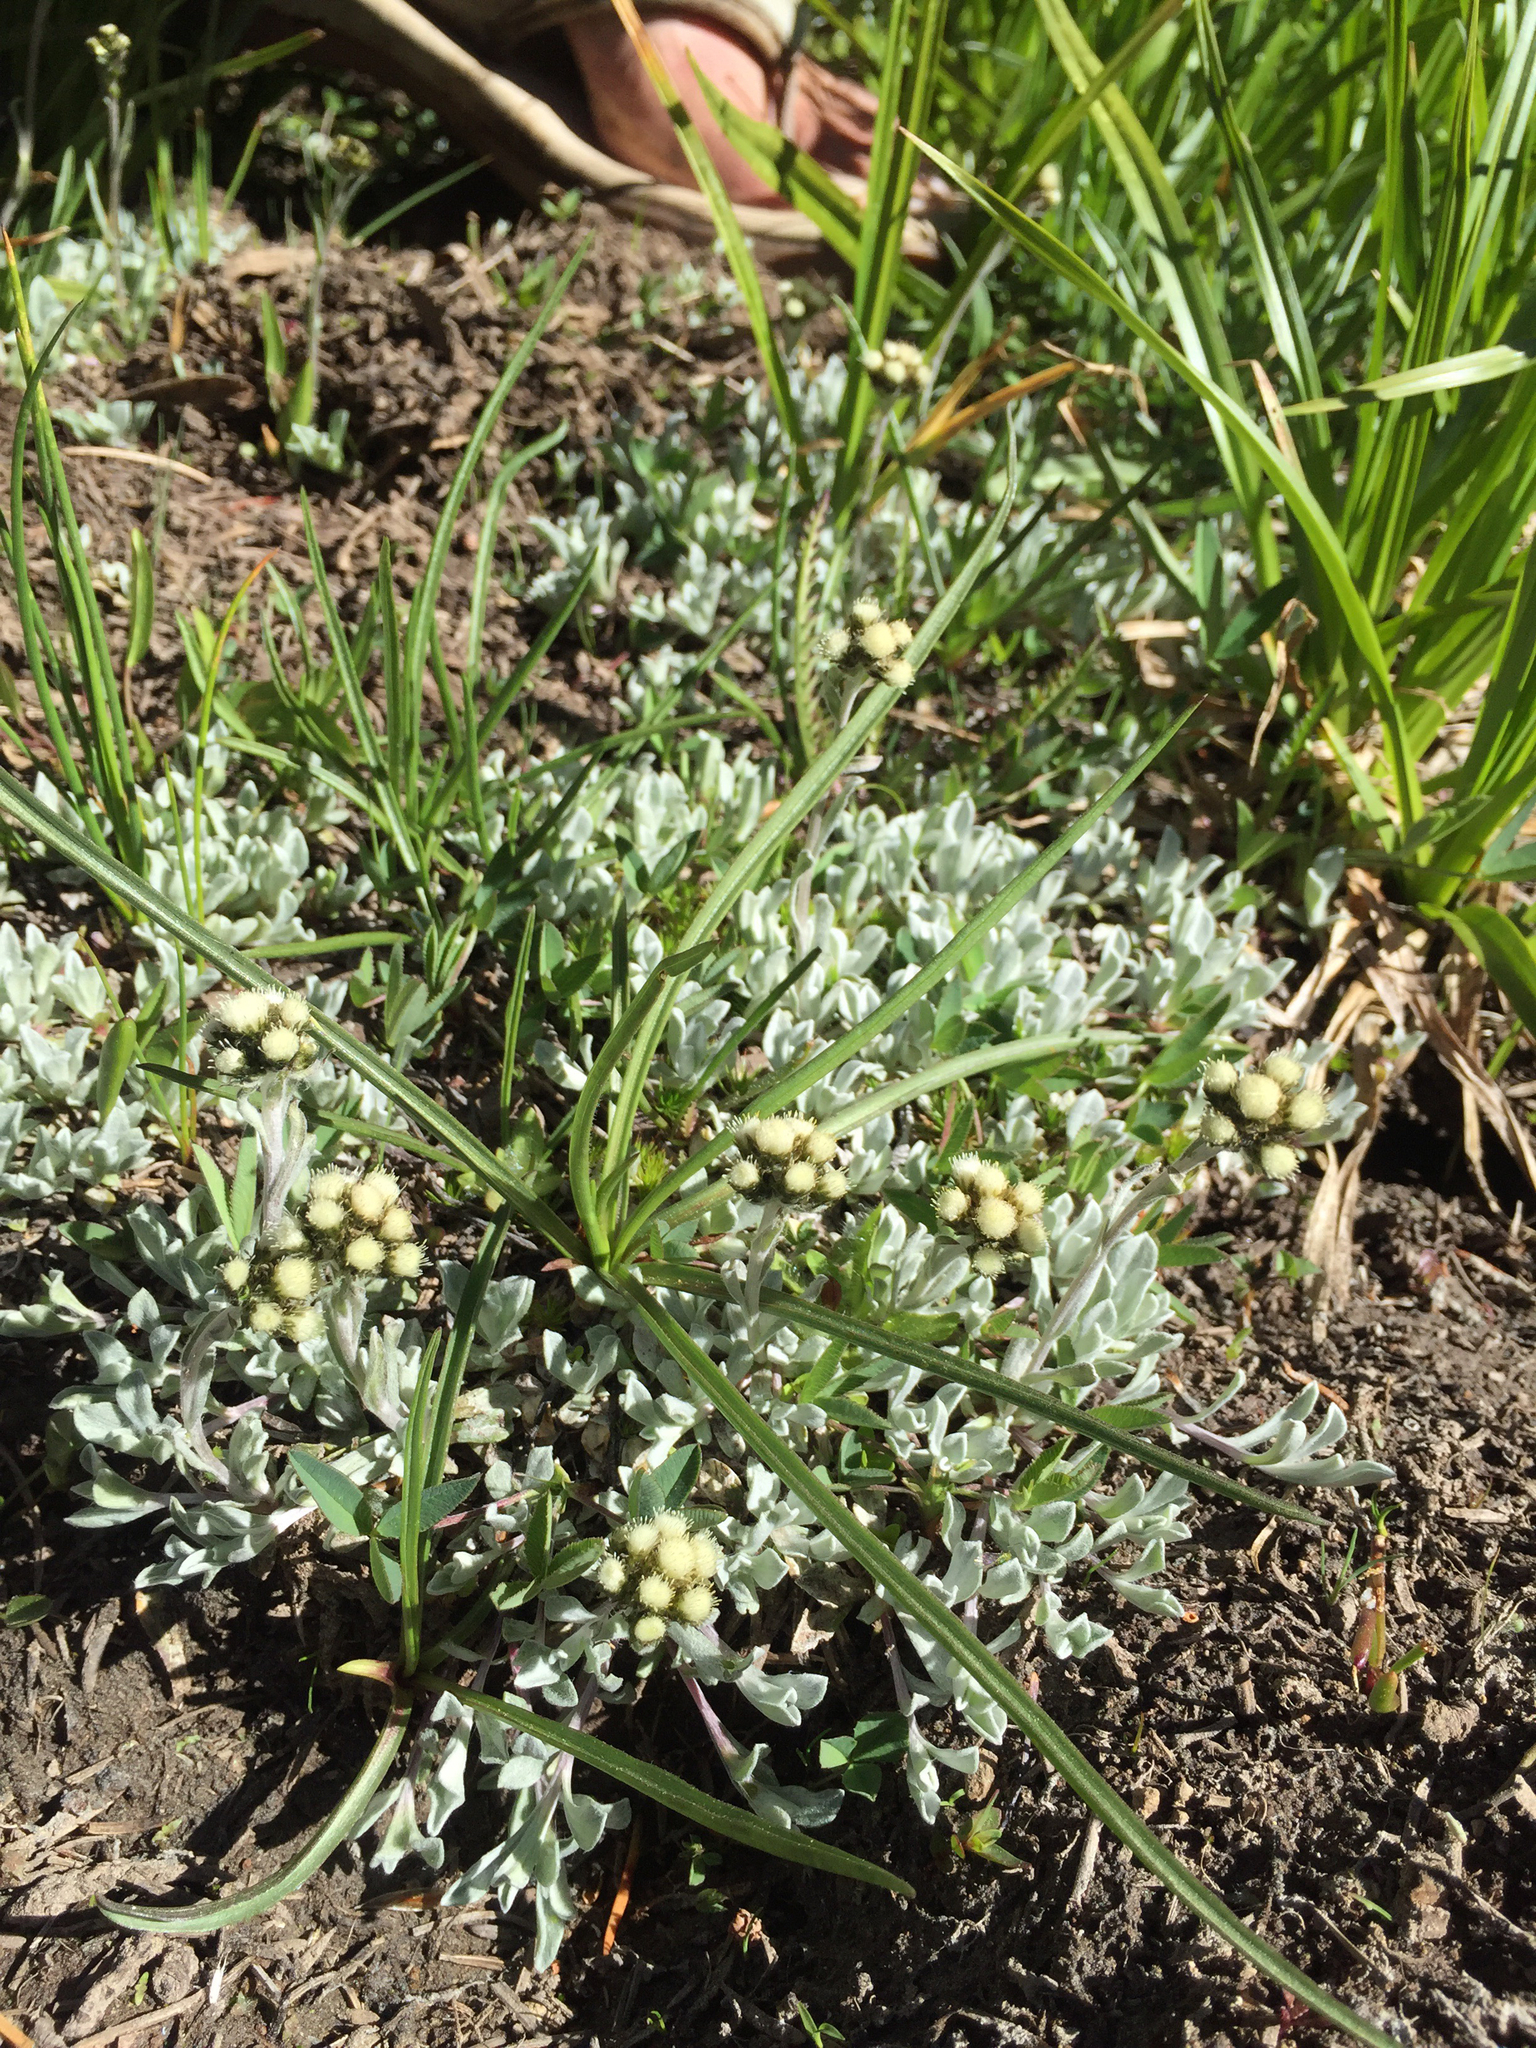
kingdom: Plantae
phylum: Tracheophyta
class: Magnoliopsida
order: Asterales
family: Asteraceae
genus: Antennaria
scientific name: Antennaria media
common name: Rocky mountain pussytoes
